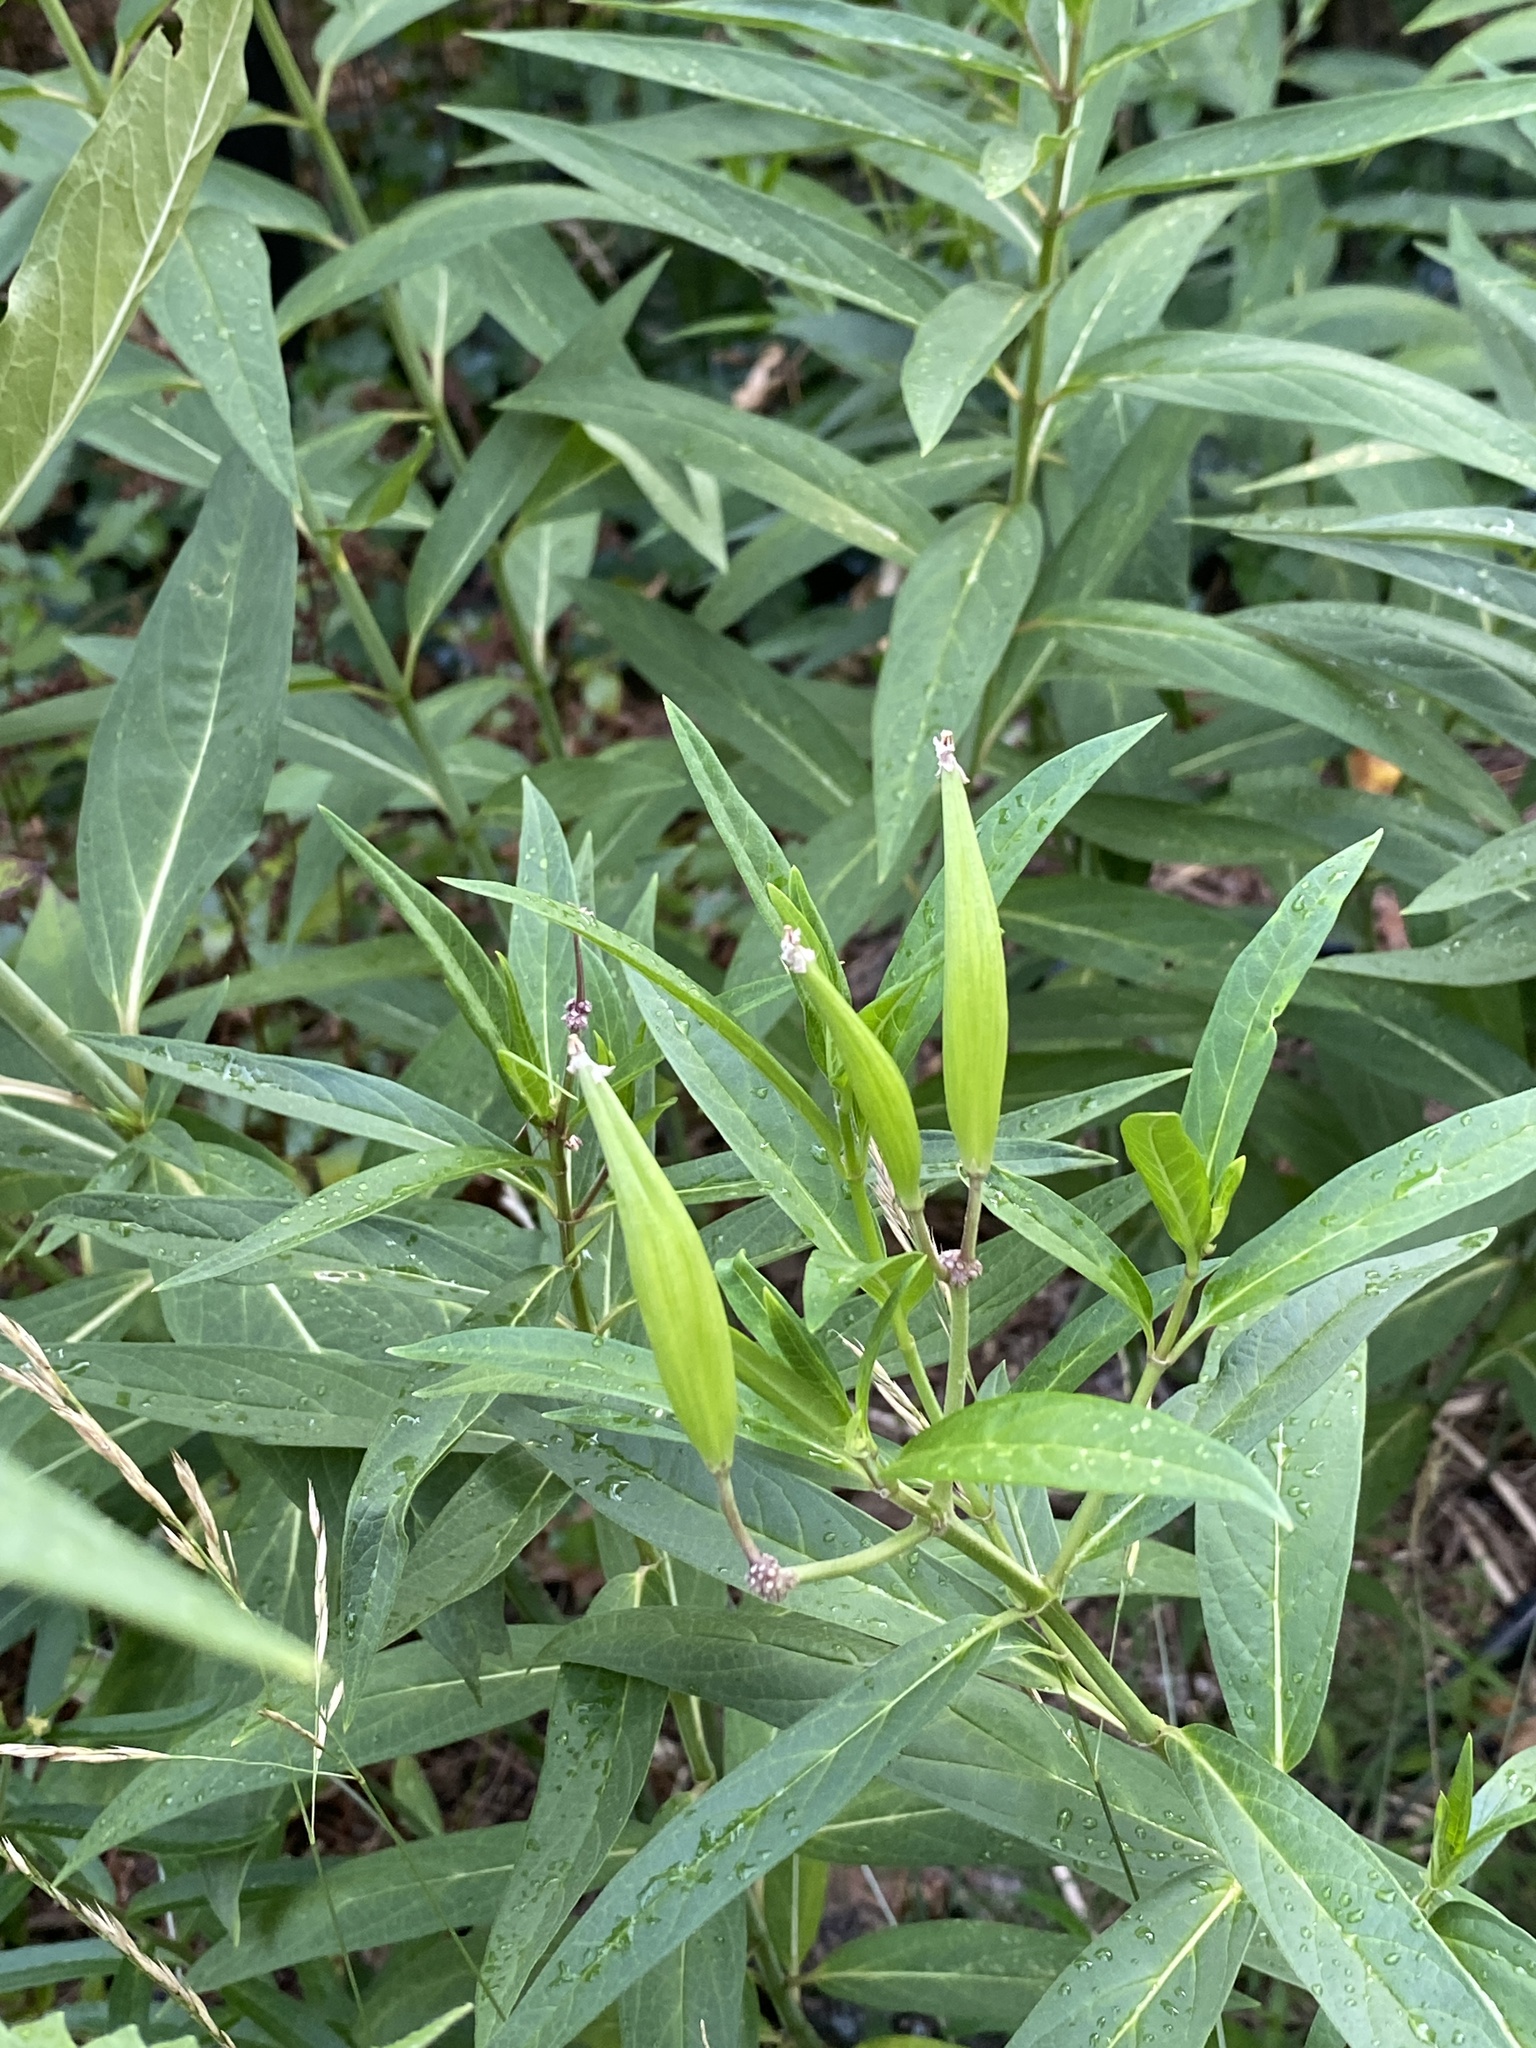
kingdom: Plantae
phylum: Tracheophyta
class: Magnoliopsida
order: Gentianales
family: Apocynaceae
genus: Asclepias
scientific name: Asclepias incarnata
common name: Swamp milkweed
